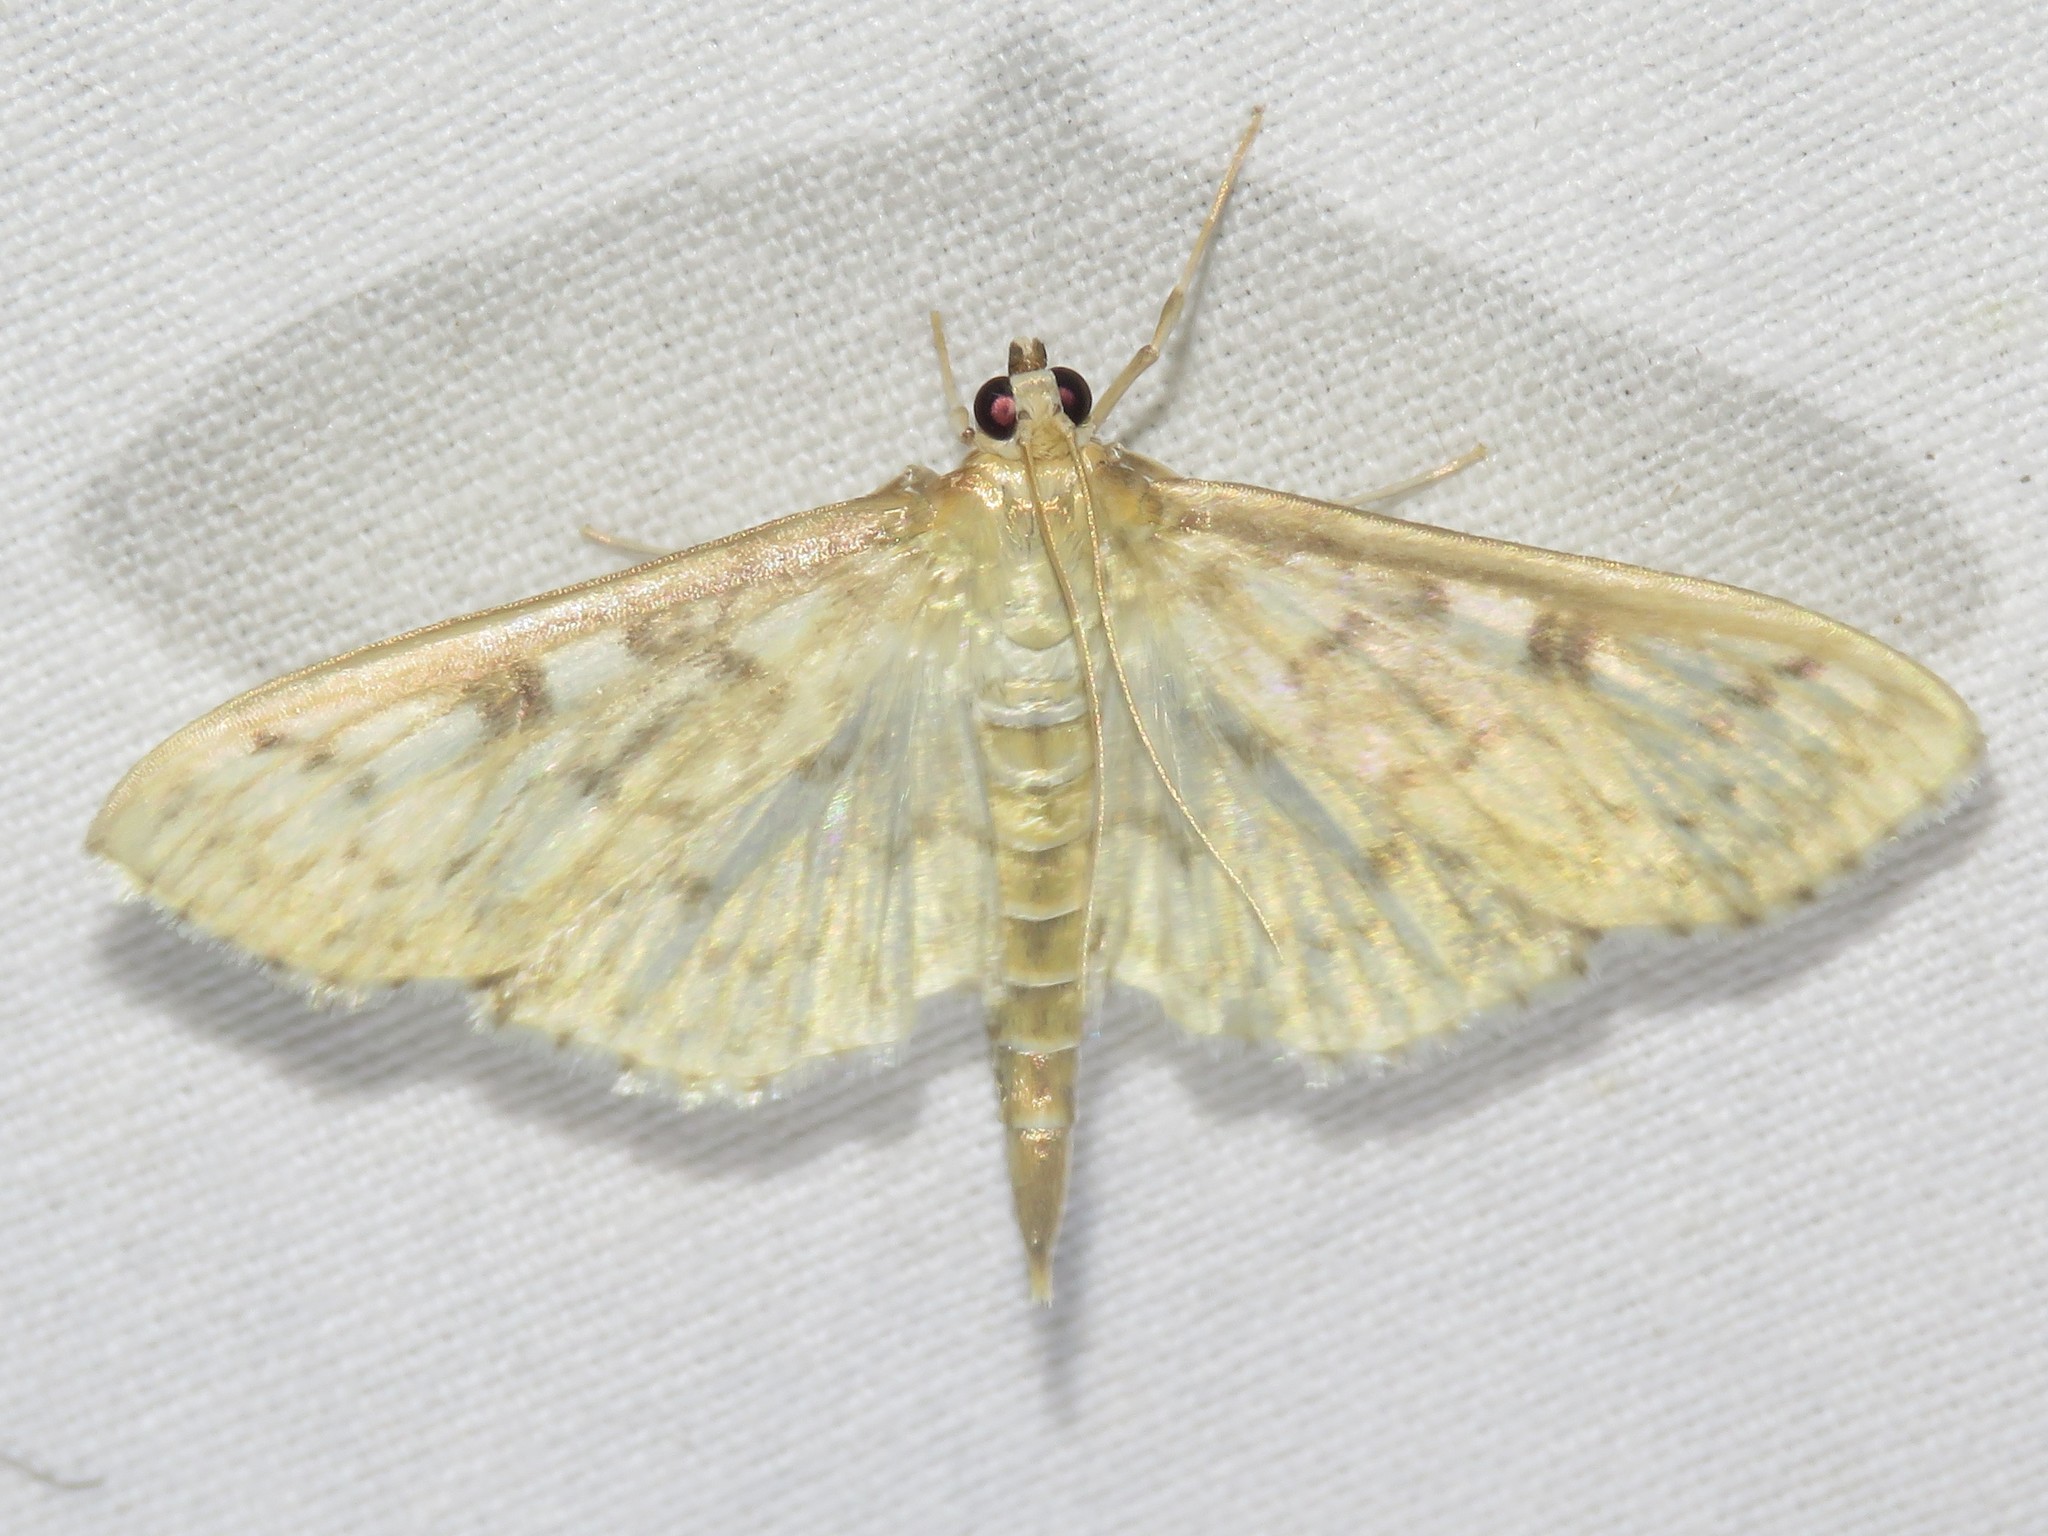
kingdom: Animalia
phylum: Arthropoda
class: Insecta
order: Lepidoptera
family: Crambidae
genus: Herpetogramma
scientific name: Herpetogramma aquilonalis
